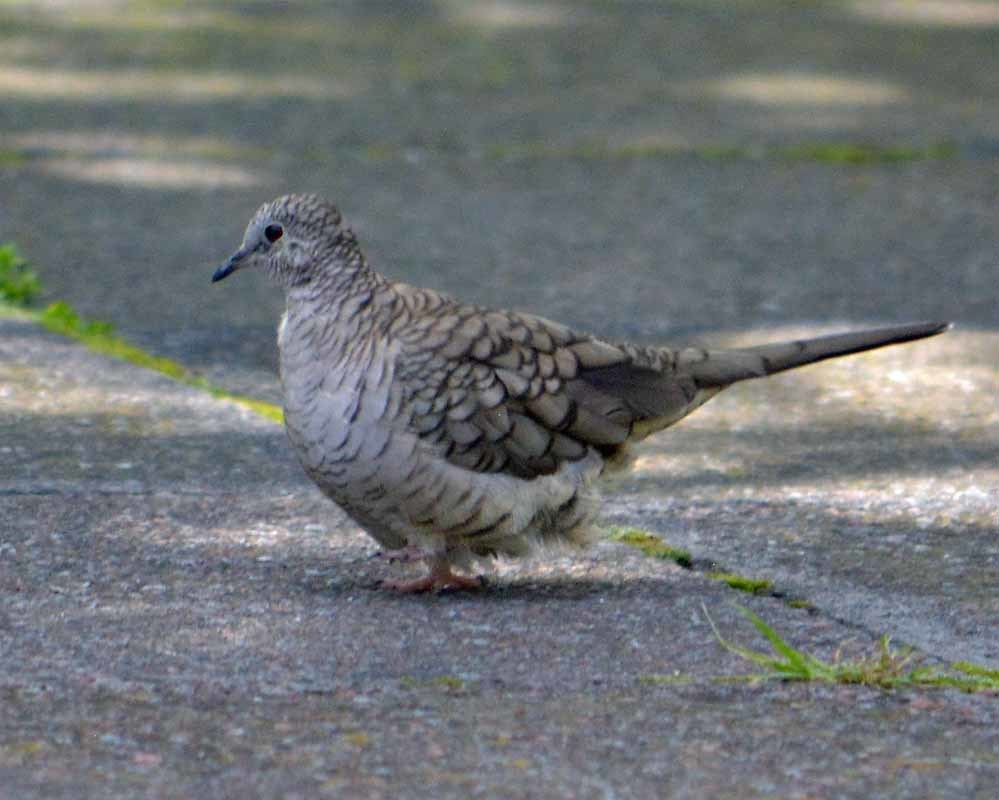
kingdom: Animalia
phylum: Chordata
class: Aves
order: Columbiformes
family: Columbidae
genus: Columbina
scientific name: Columbina inca
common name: Inca dove
